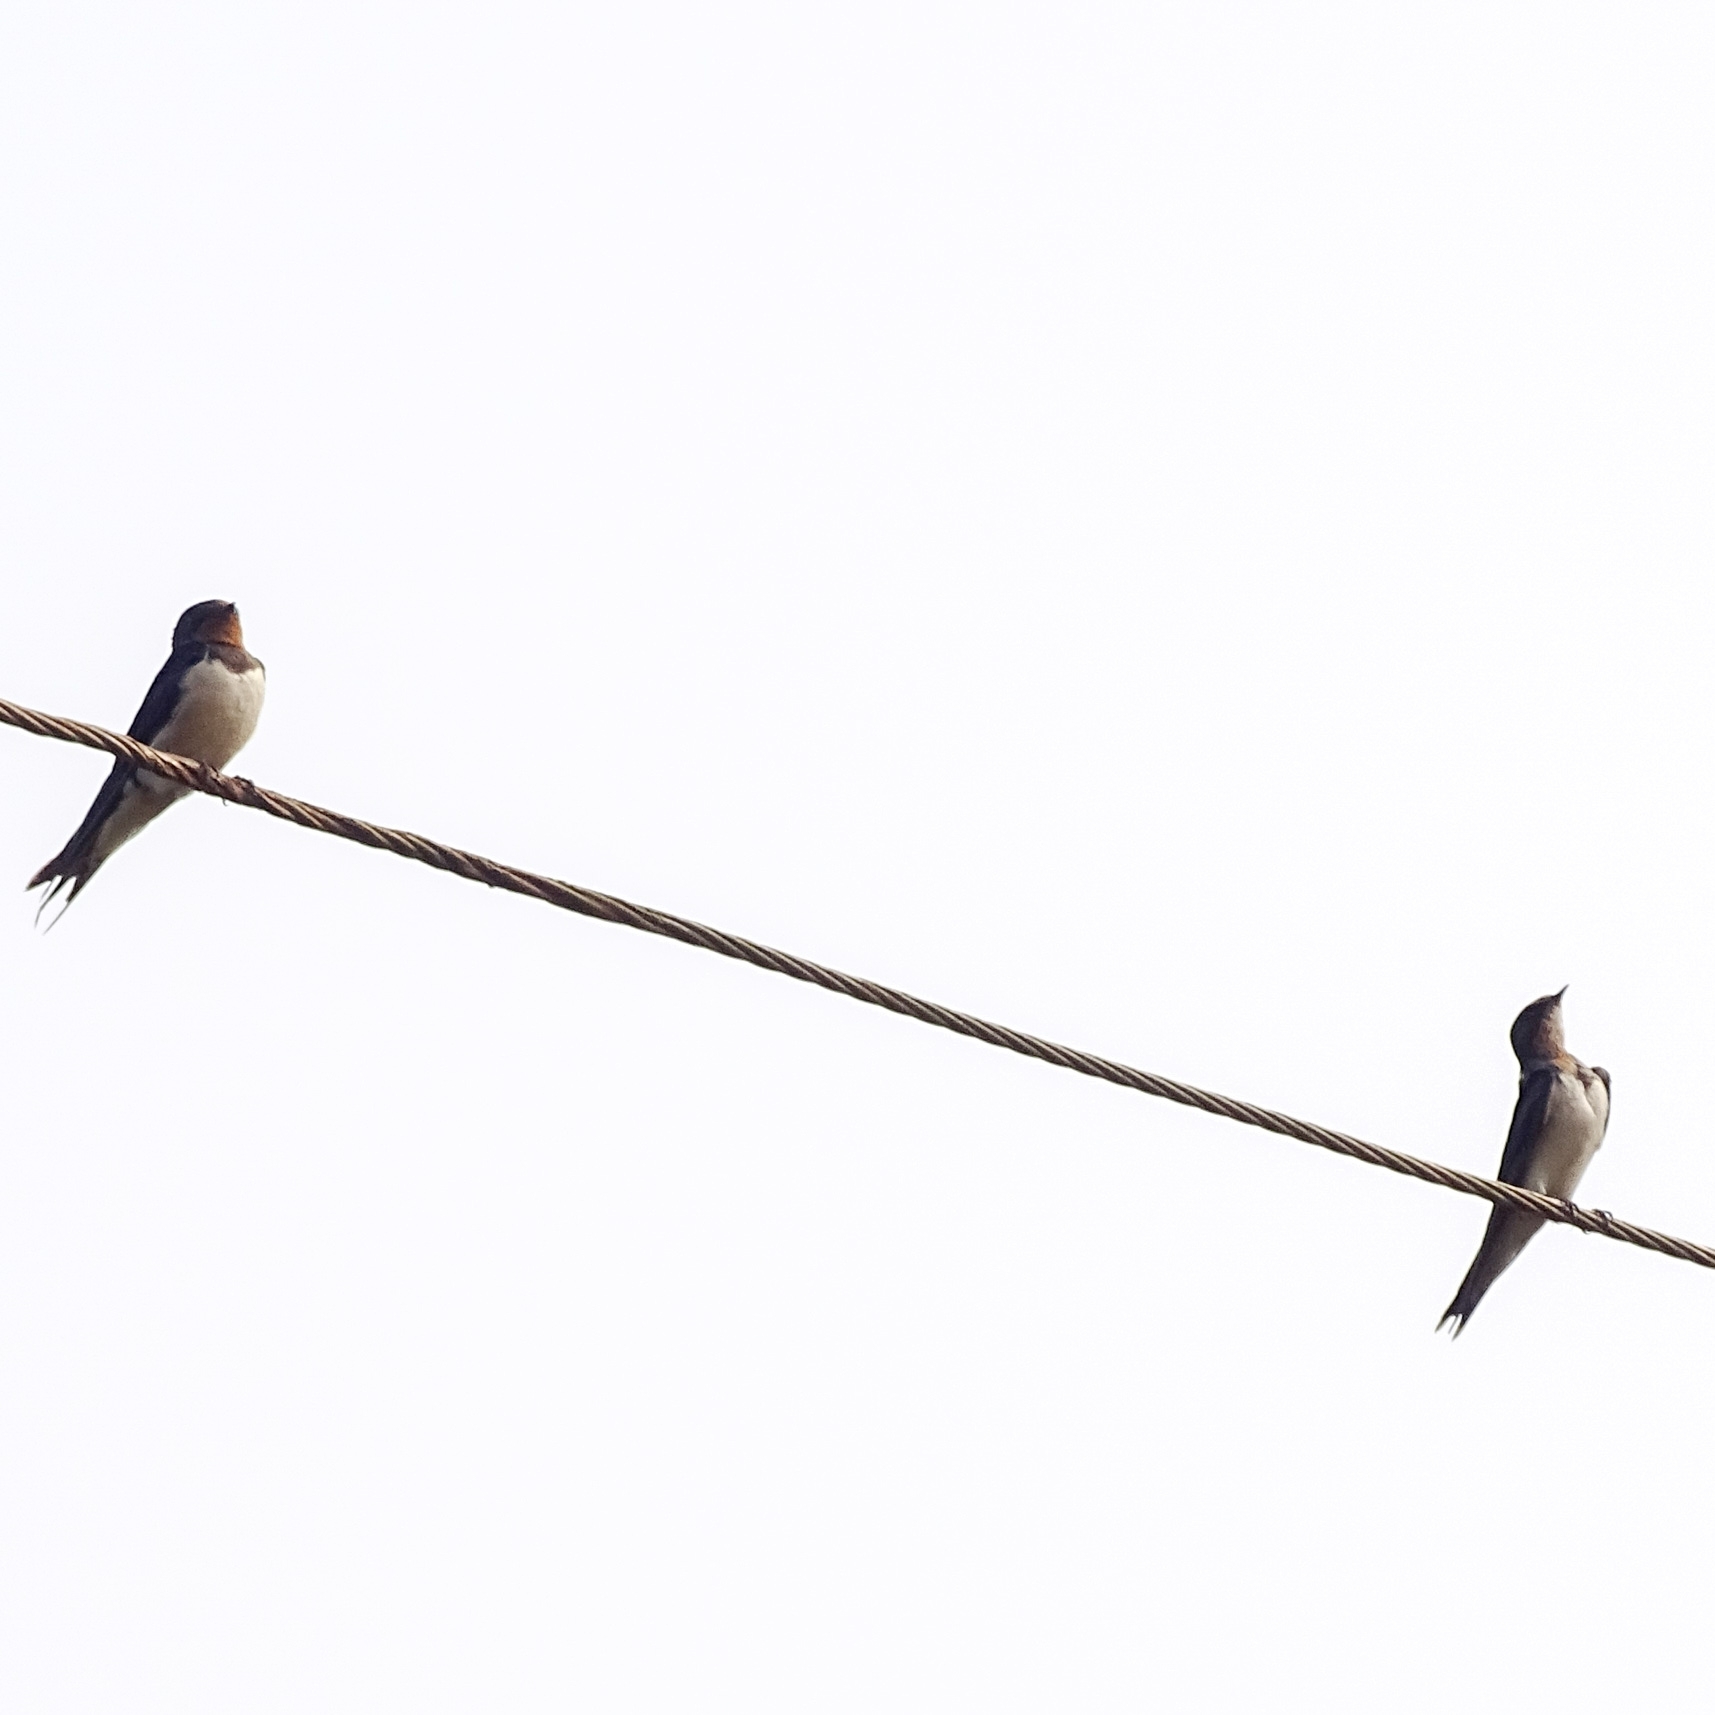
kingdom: Animalia
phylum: Chordata
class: Aves
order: Passeriformes
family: Hirundinidae
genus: Hirundo
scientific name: Hirundo rustica
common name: Barn swallow
